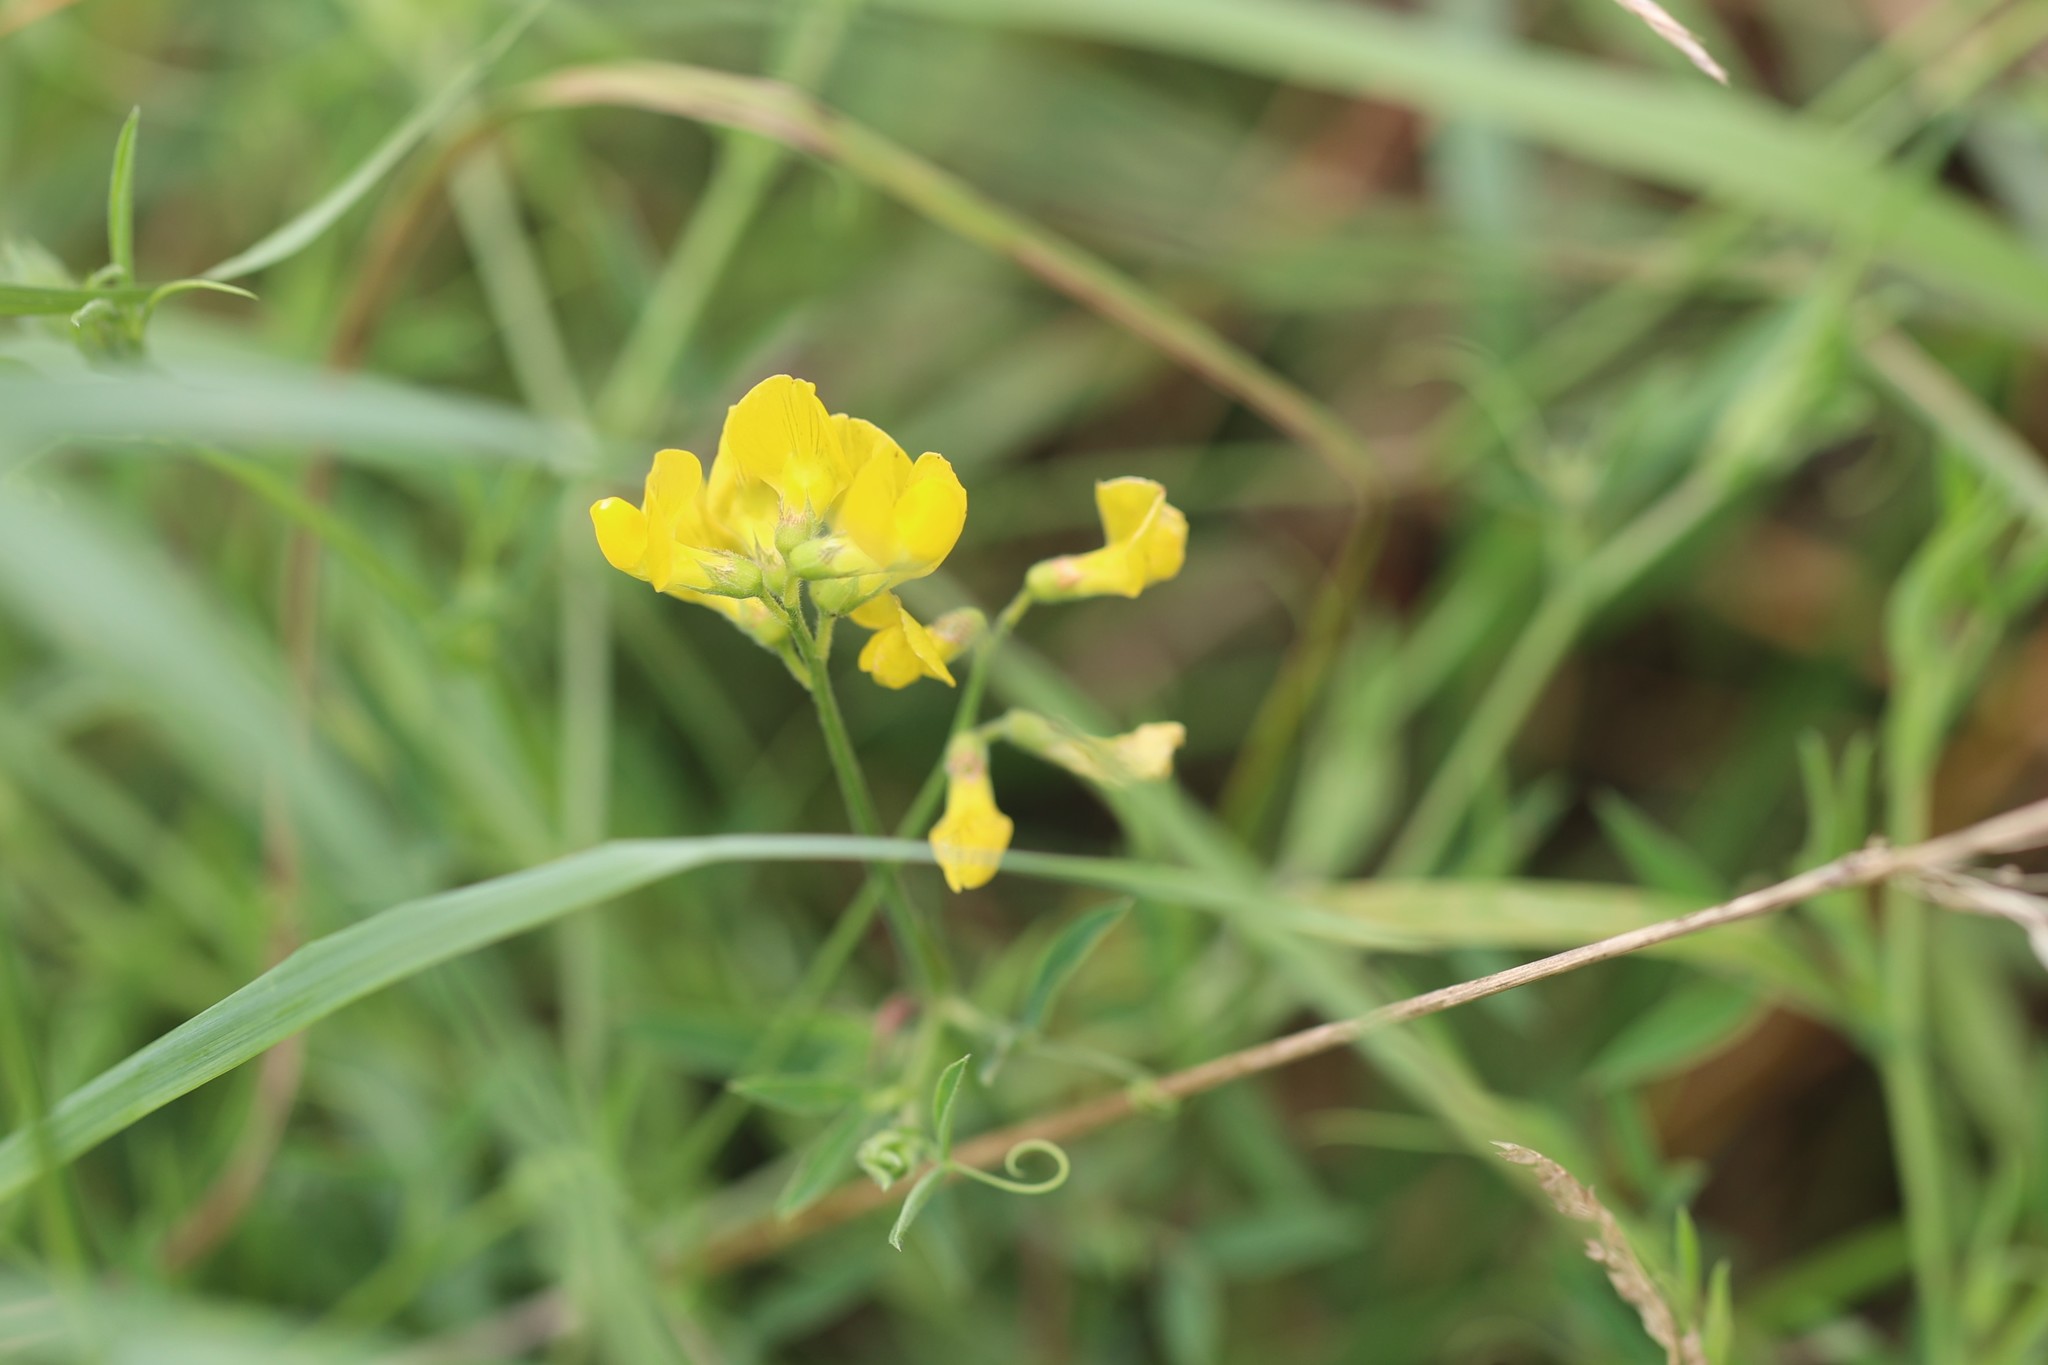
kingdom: Plantae
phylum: Tracheophyta
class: Magnoliopsida
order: Fabales
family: Fabaceae
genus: Lathyrus
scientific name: Lathyrus pratensis
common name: Meadow vetchling
